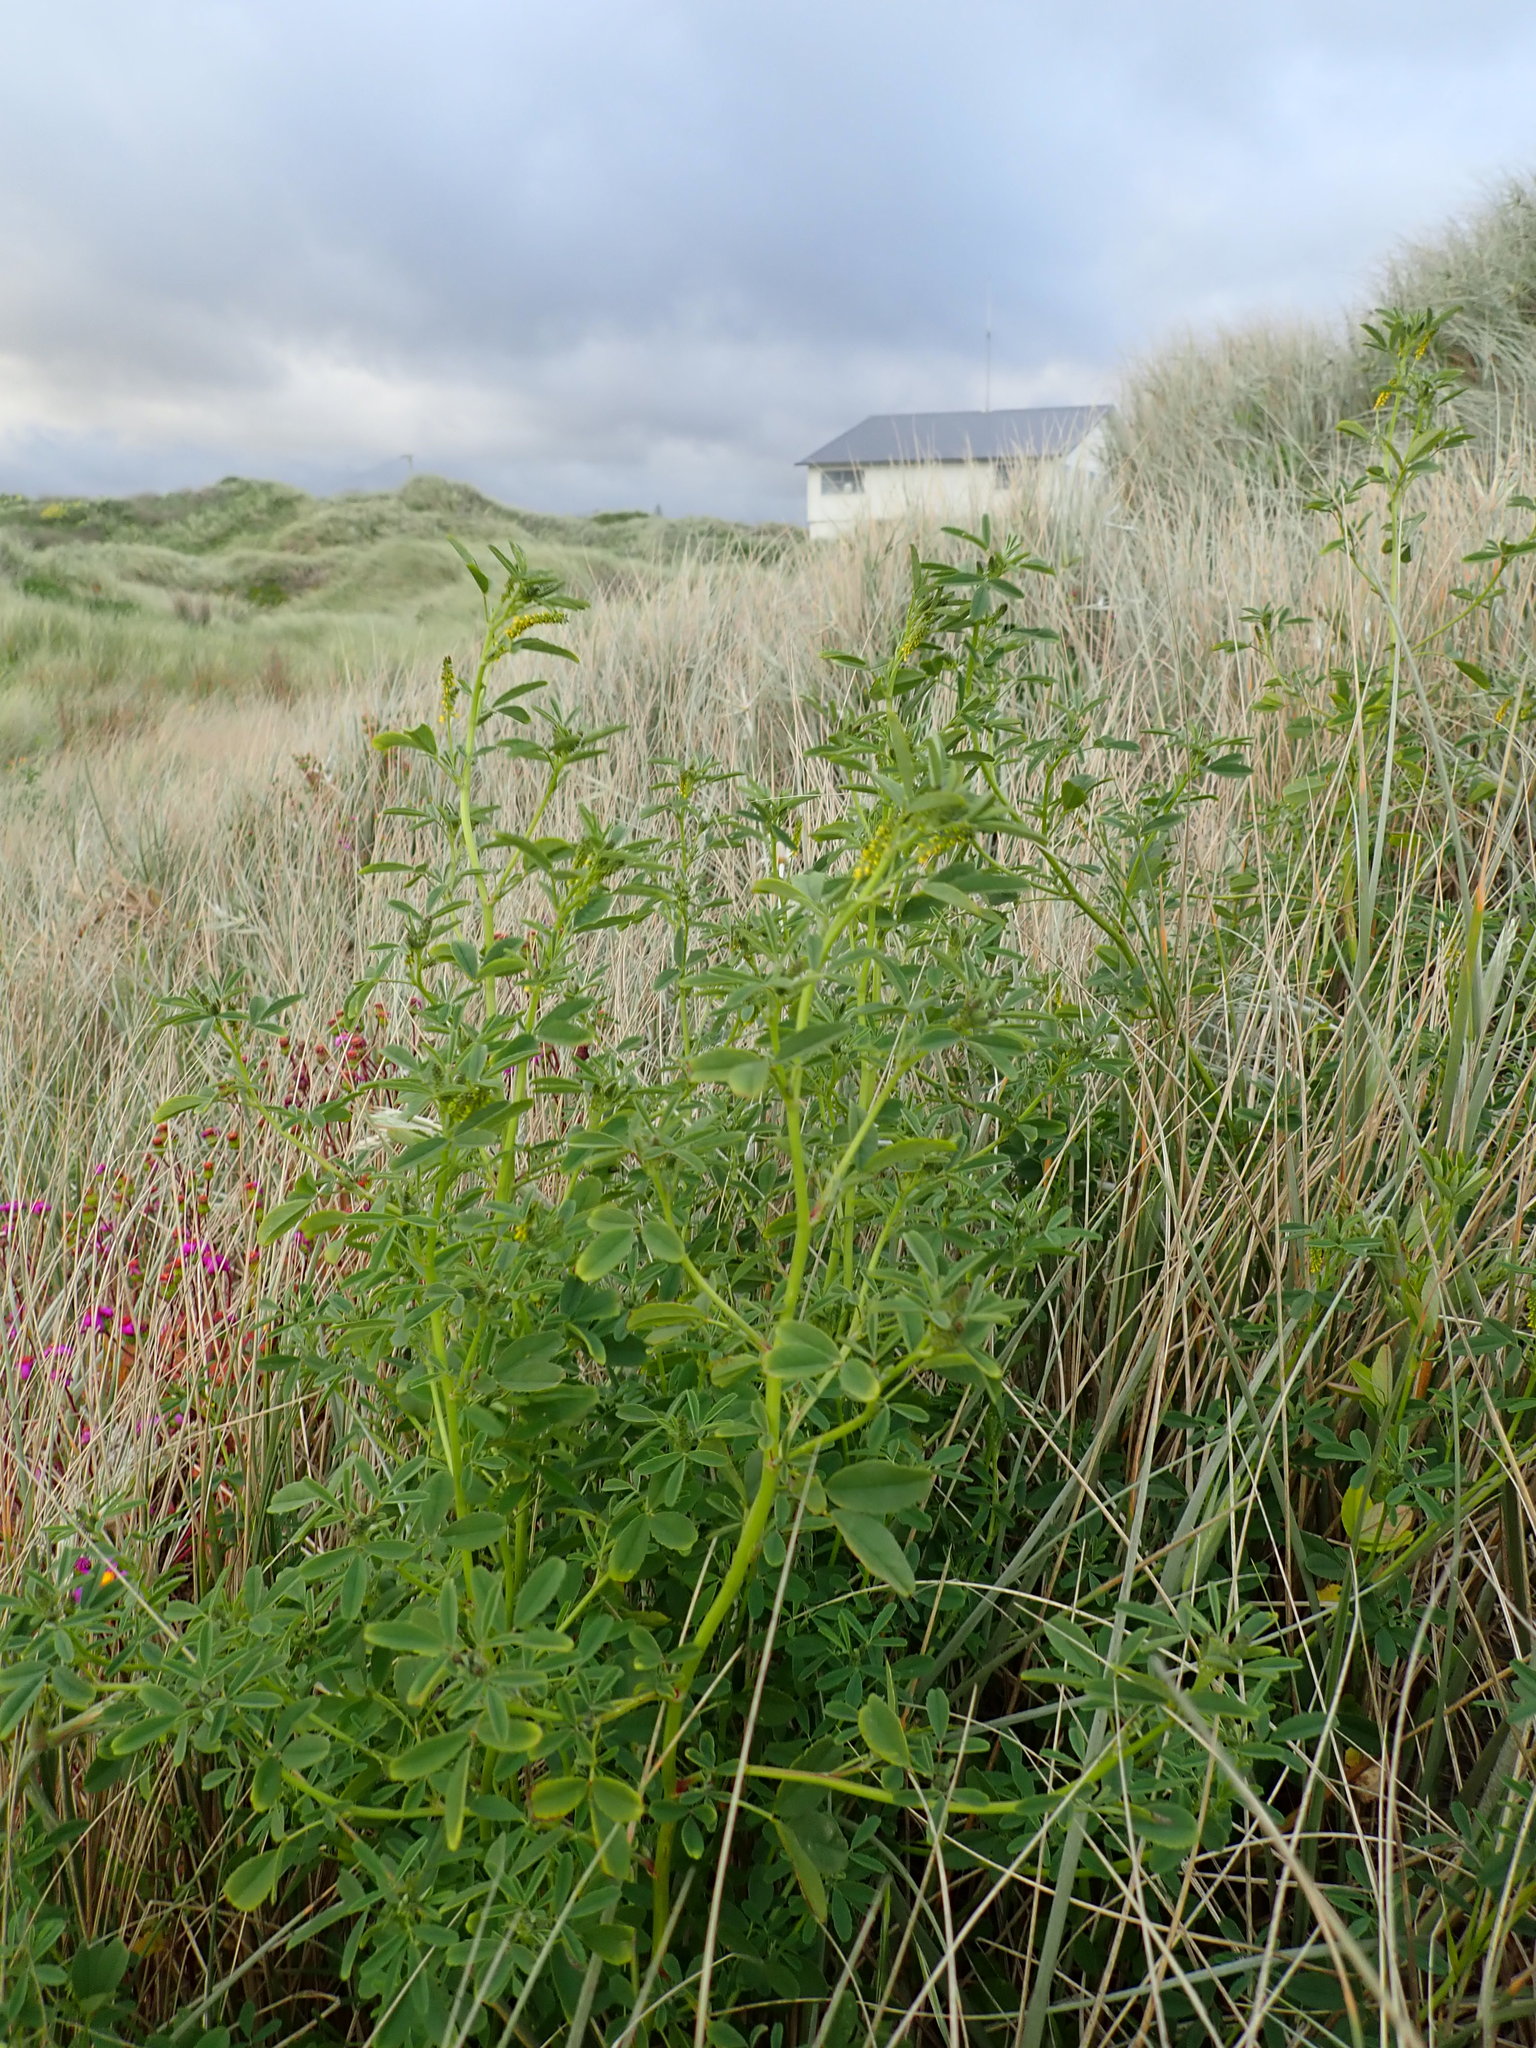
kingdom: Plantae
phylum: Tracheophyta
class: Magnoliopsida
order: Fabales
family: Fabaceae
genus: Melilotus
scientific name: Melilotus indicus
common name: Small melilot
